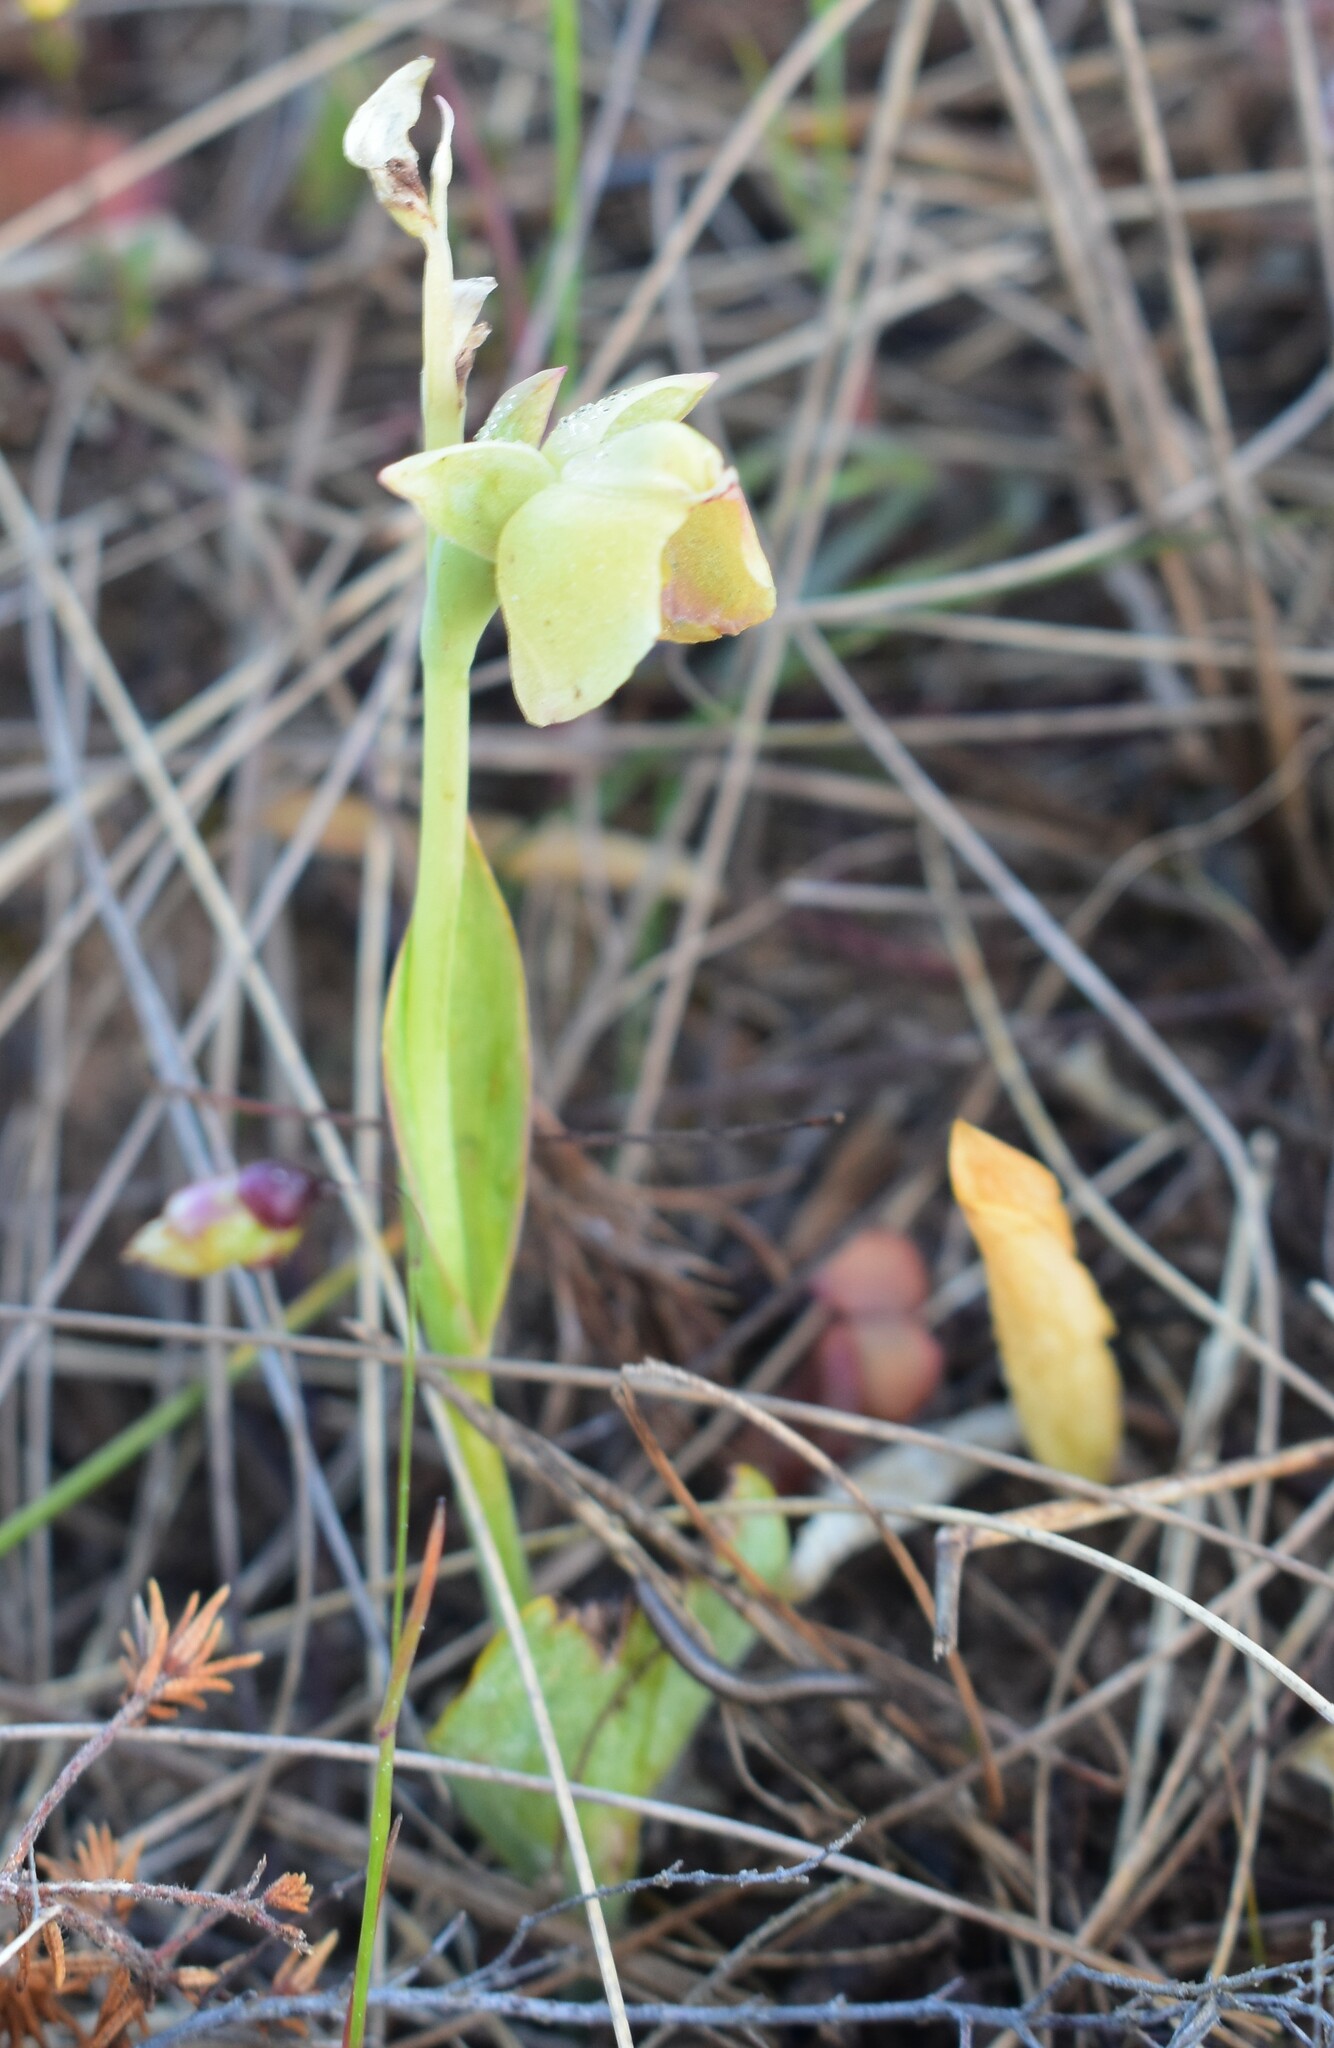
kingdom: Plantae
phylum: Tracheophyta
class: Liliopsida
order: Asparagales
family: Orchidaceae
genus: Pterygodium
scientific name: Pterygodium catholicum
